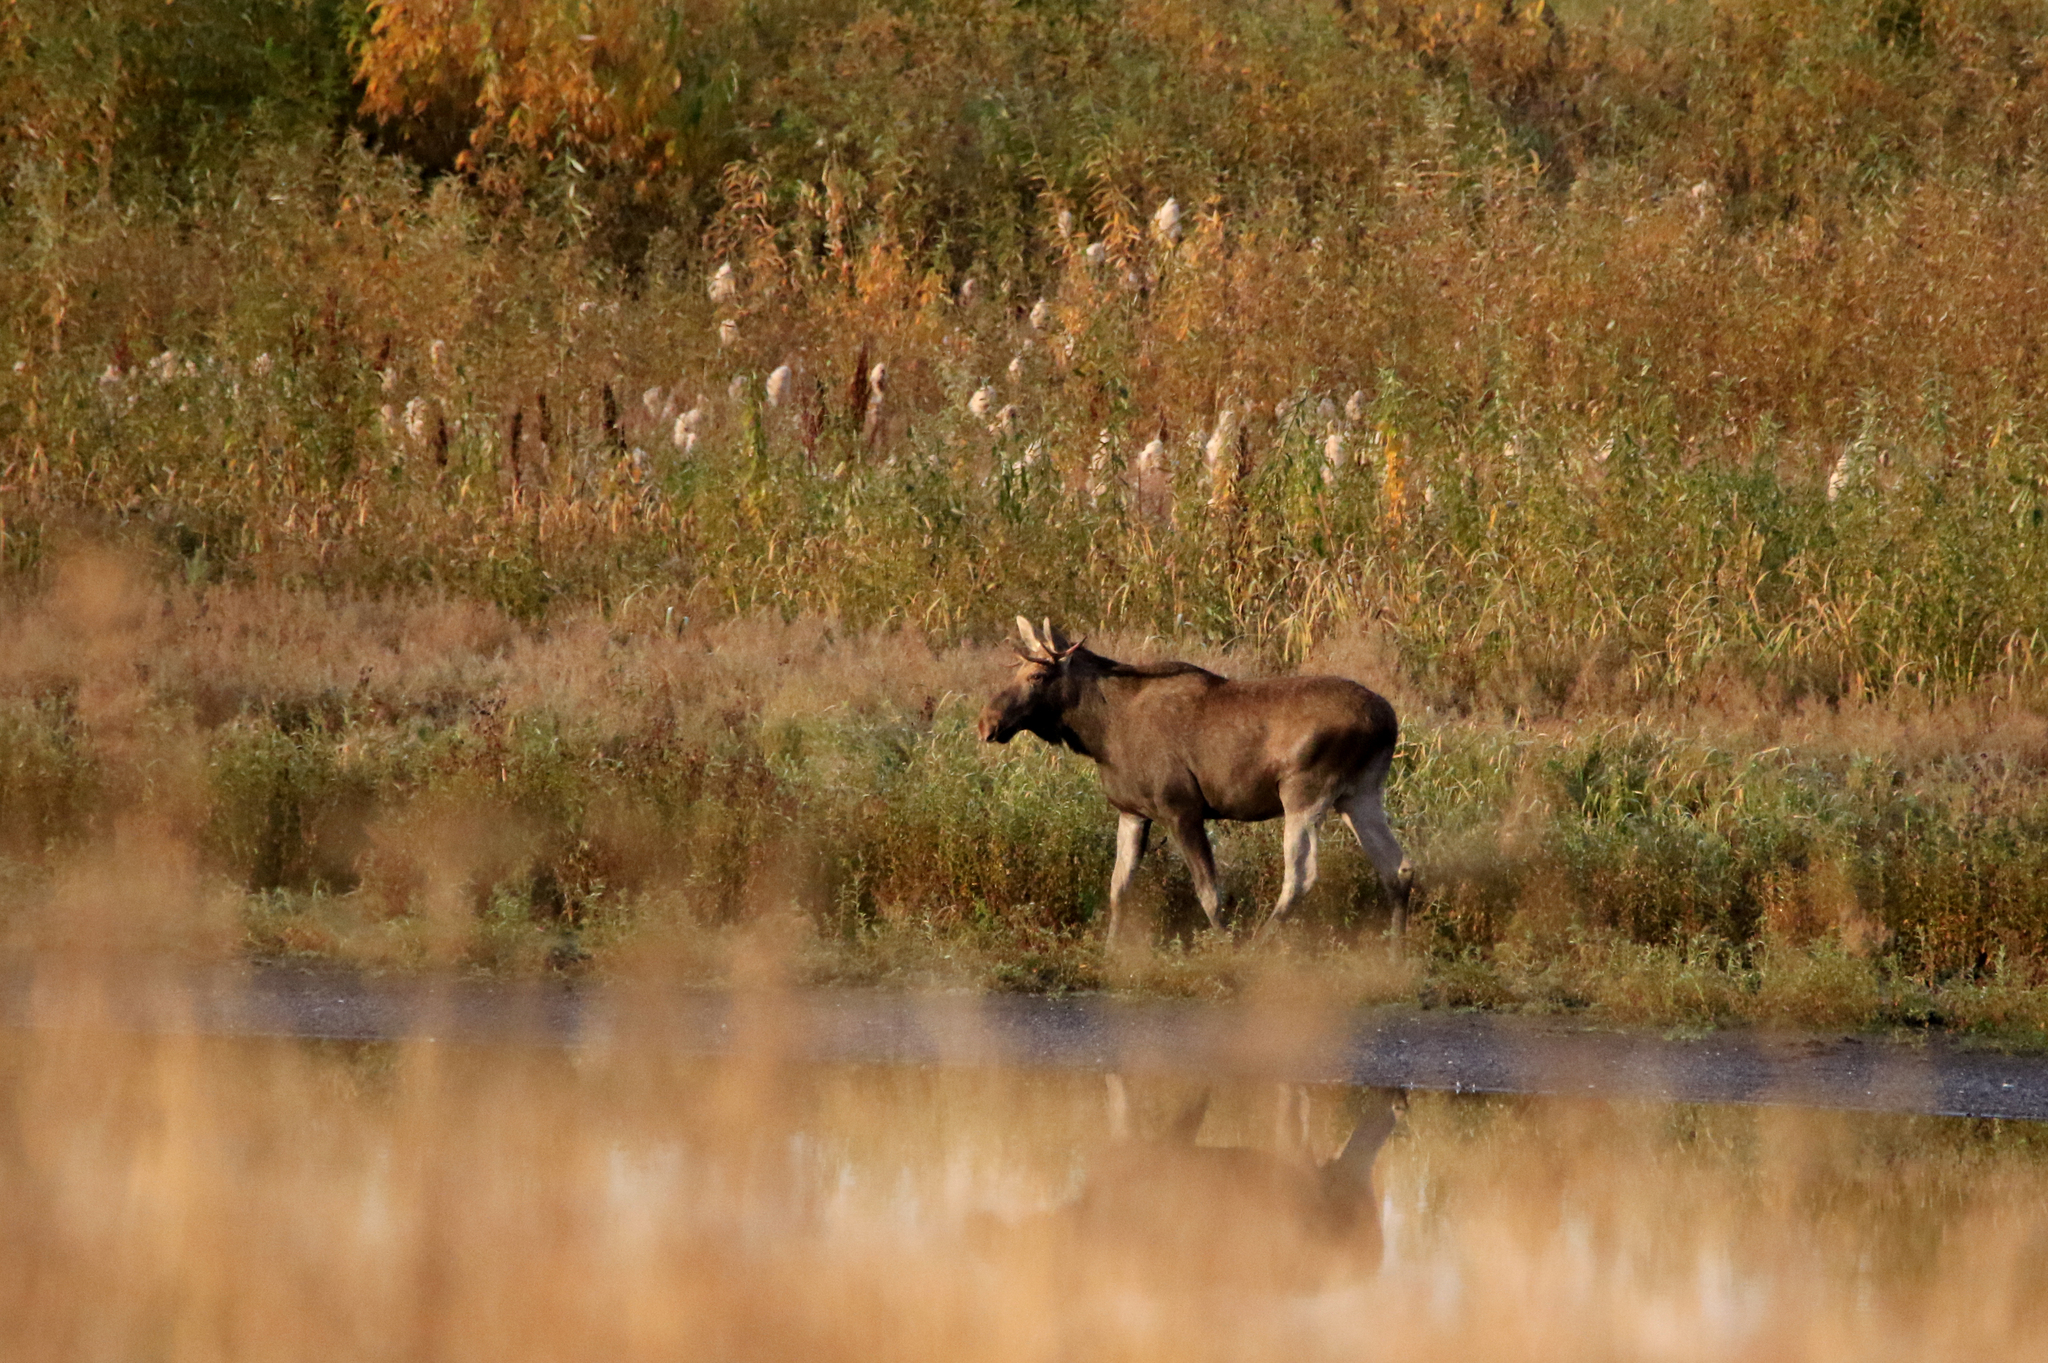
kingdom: Animalia
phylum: Chordata
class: Mammalia
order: Artiodactyla
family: Cervidae
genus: Alces
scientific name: Alces alces
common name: Moose
